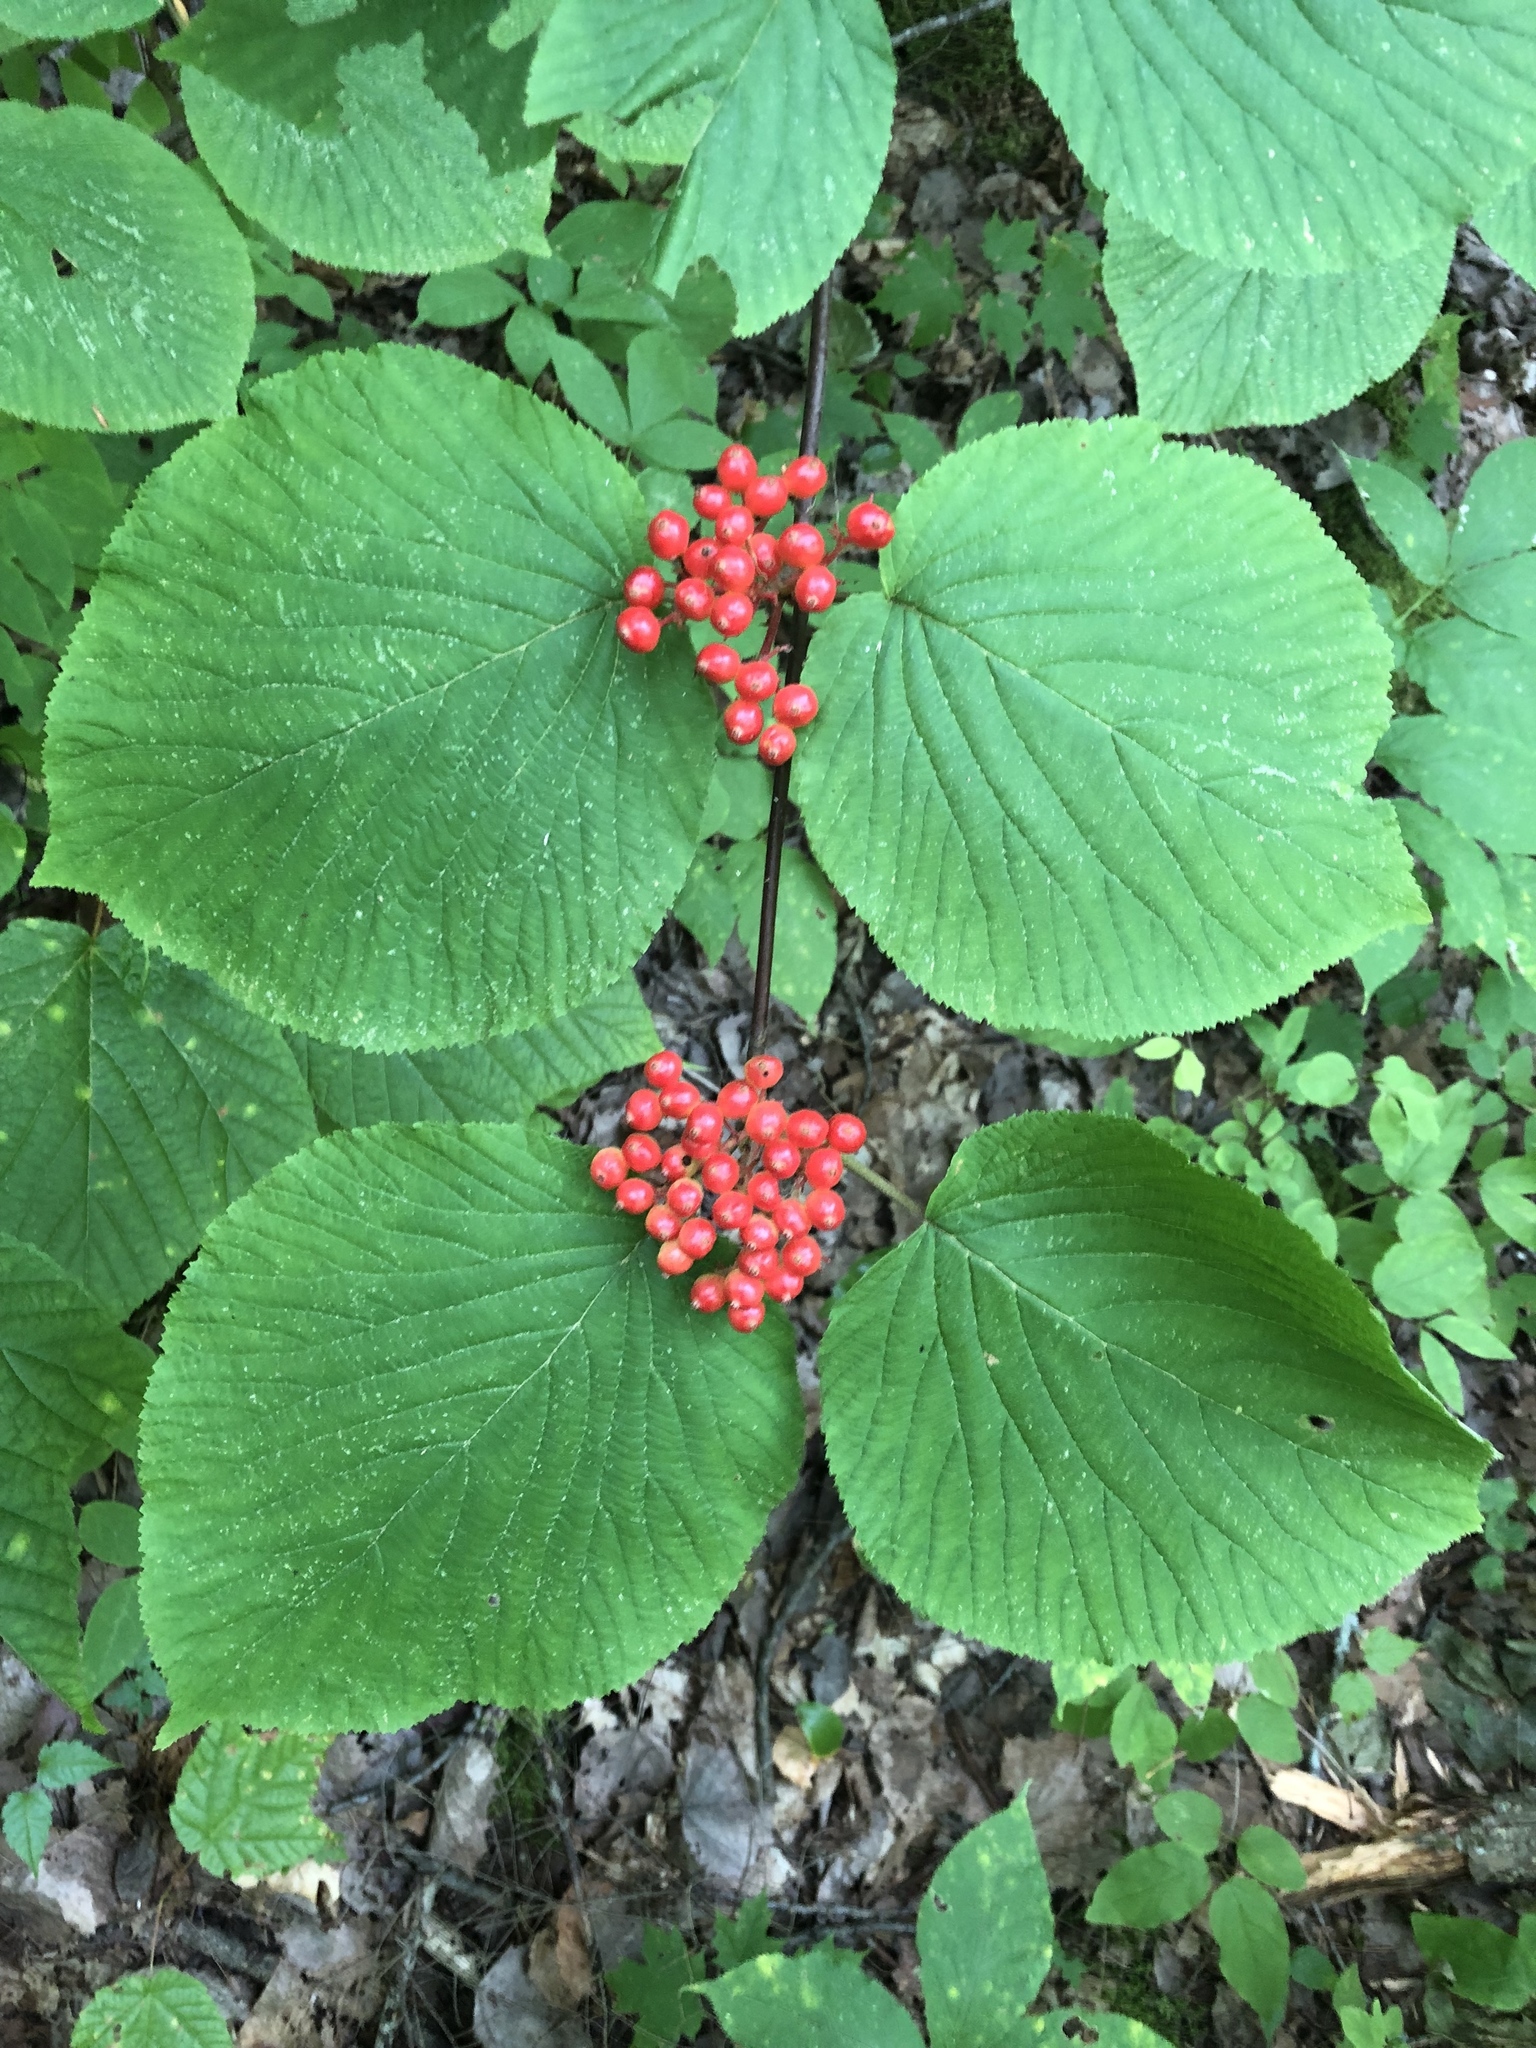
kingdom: Plantae
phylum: Tracheophyta
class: Magnoliopsida
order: Dipsacales
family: Viburnaceae
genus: Viburnum
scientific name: Viburnum lantanoides
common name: Hobblebush
